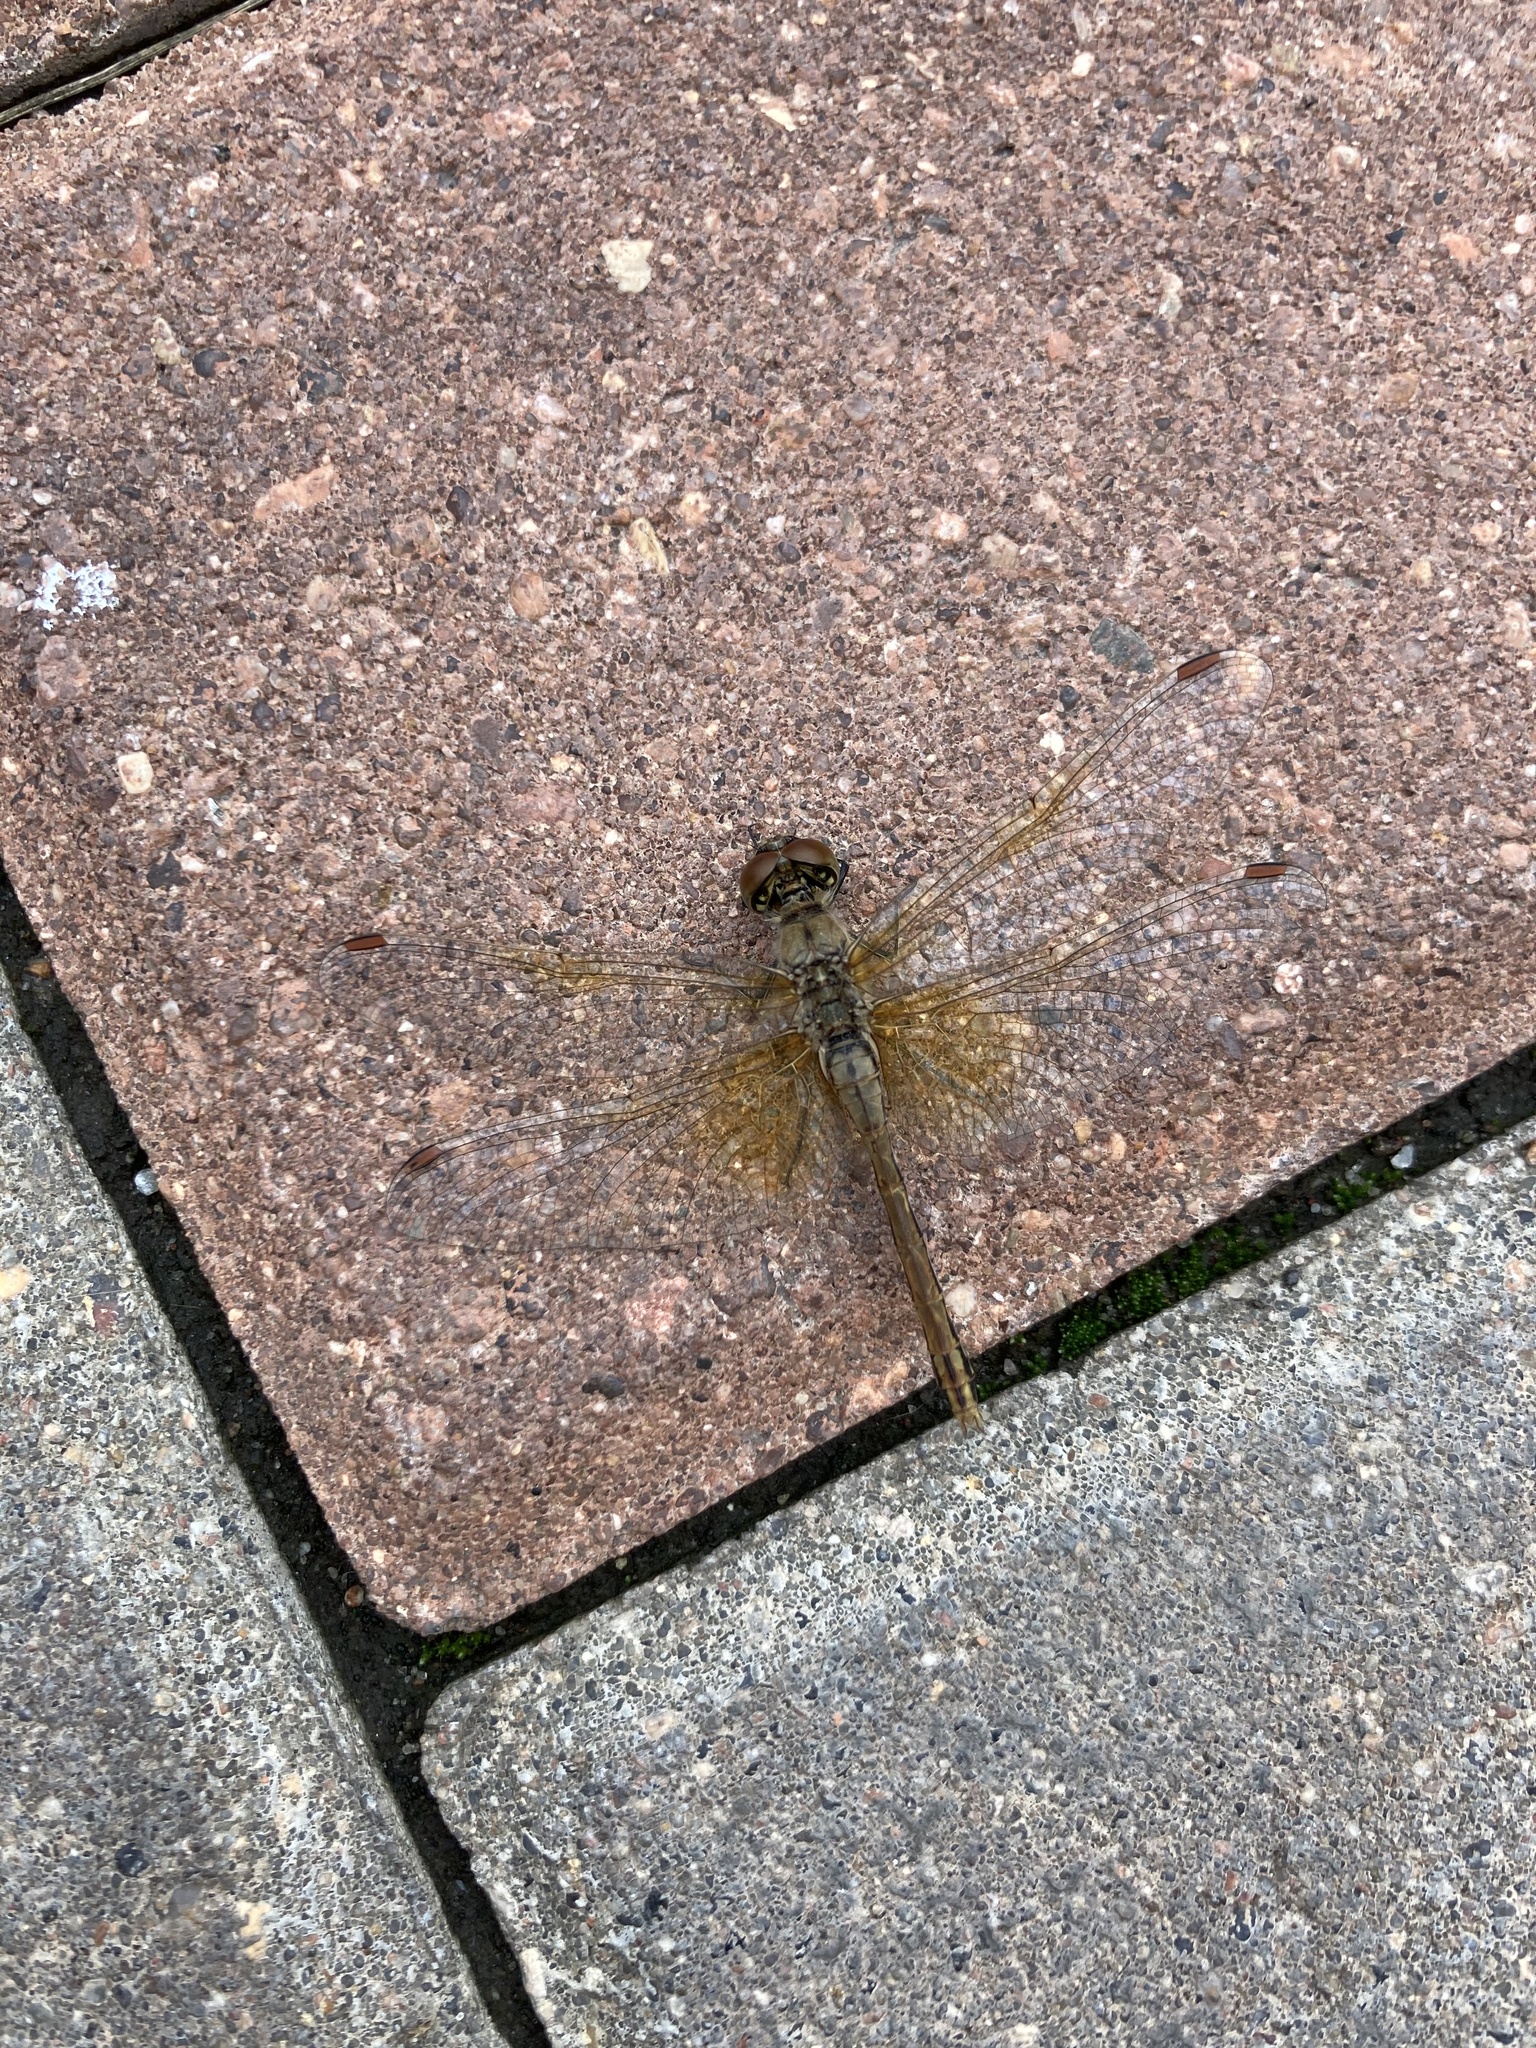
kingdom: Animalia
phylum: Arthropoda
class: Insecta
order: Odonata
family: Libellulidae
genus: Sympetrum
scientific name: Sympetrum flaveolum
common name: Yellow-winged darter
